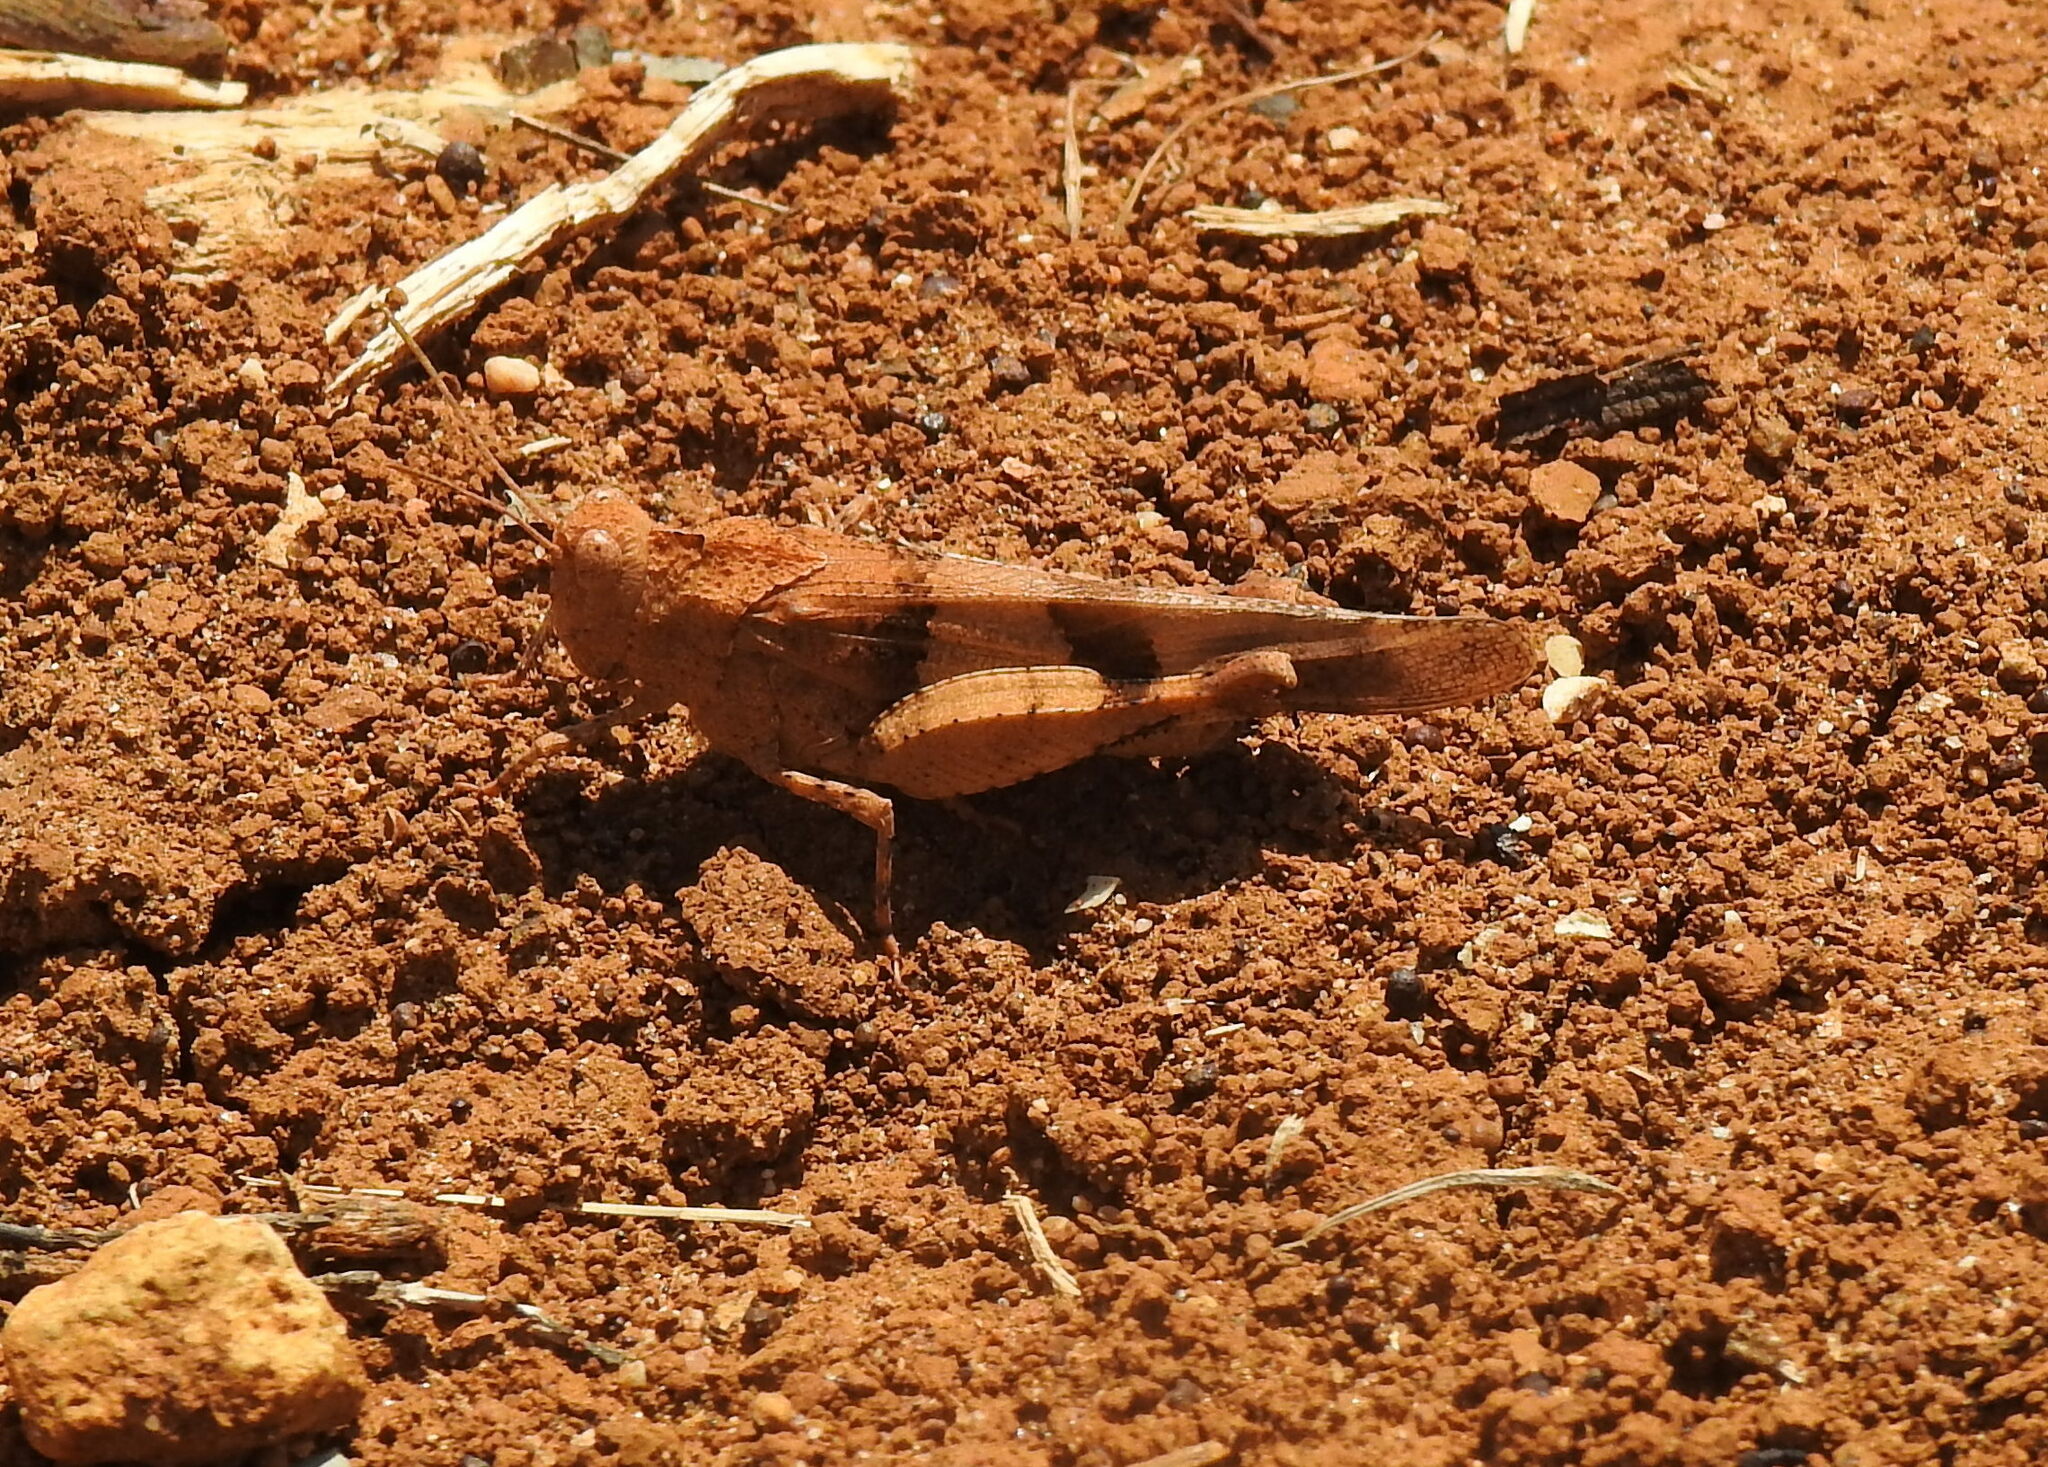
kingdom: Animalia
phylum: Arthropoda
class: Insecta
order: Orthoptera
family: Acrididae
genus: Oedipoda
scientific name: Oedipoda caerulescens
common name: Blue-winged grasshopper
